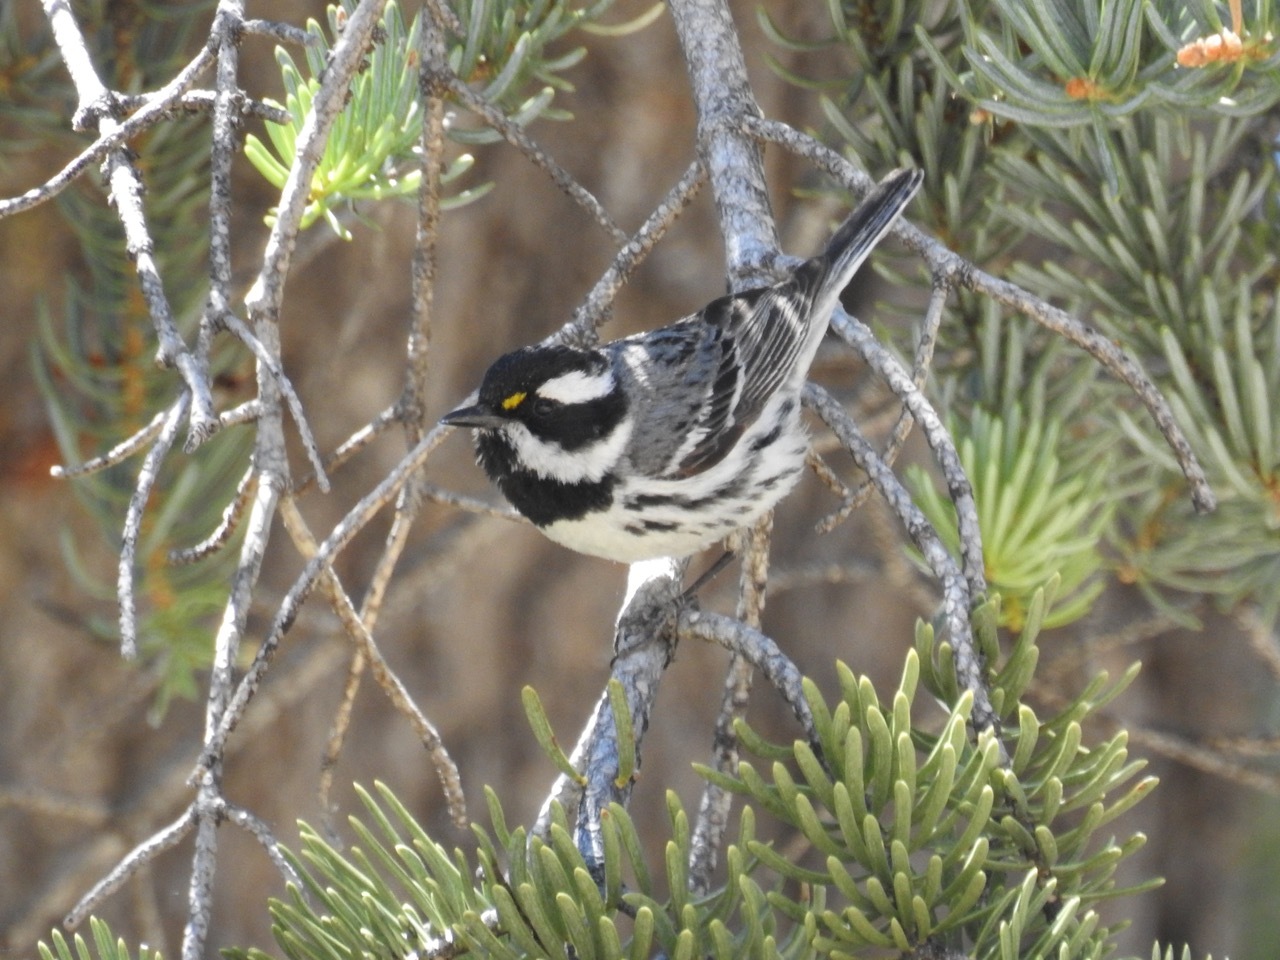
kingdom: Animalia
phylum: Chordata
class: Aves
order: Passeriformes
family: Parulidae
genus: Setophaga
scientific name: Setophaga nigrescens
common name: Black-throated gray warbler
